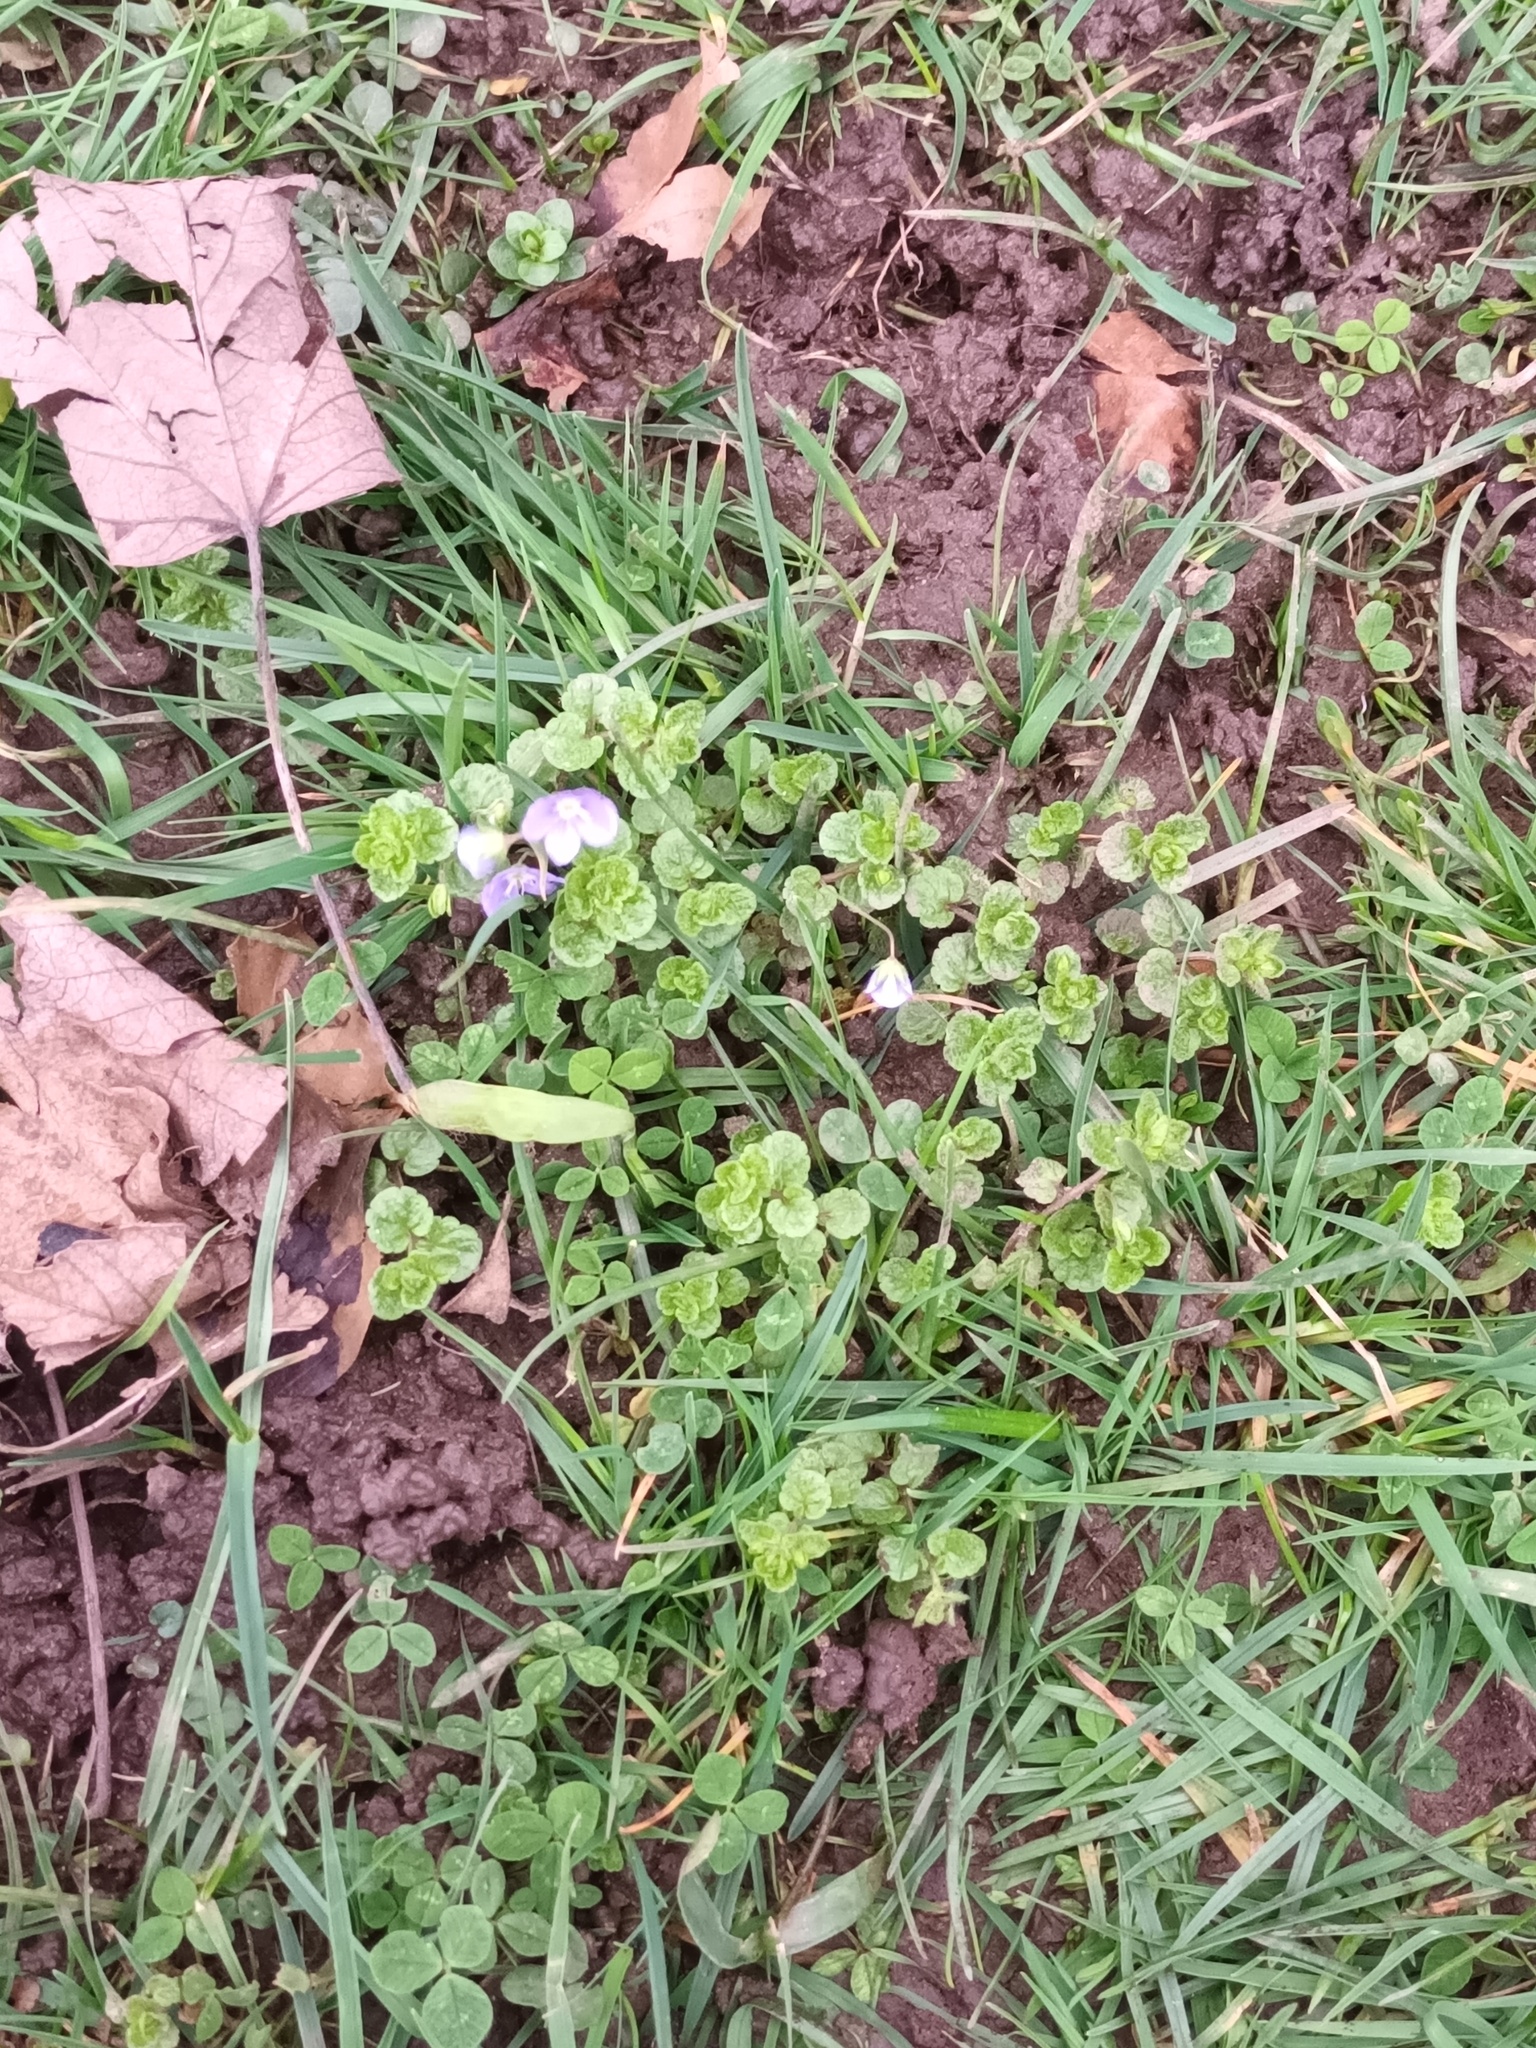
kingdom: Plantae
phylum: Tracheophyta
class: Magnoliopsida
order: Lamiales
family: Plantaginaceae
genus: Veronica
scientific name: Veronica filiformis
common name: Slender speedwell
